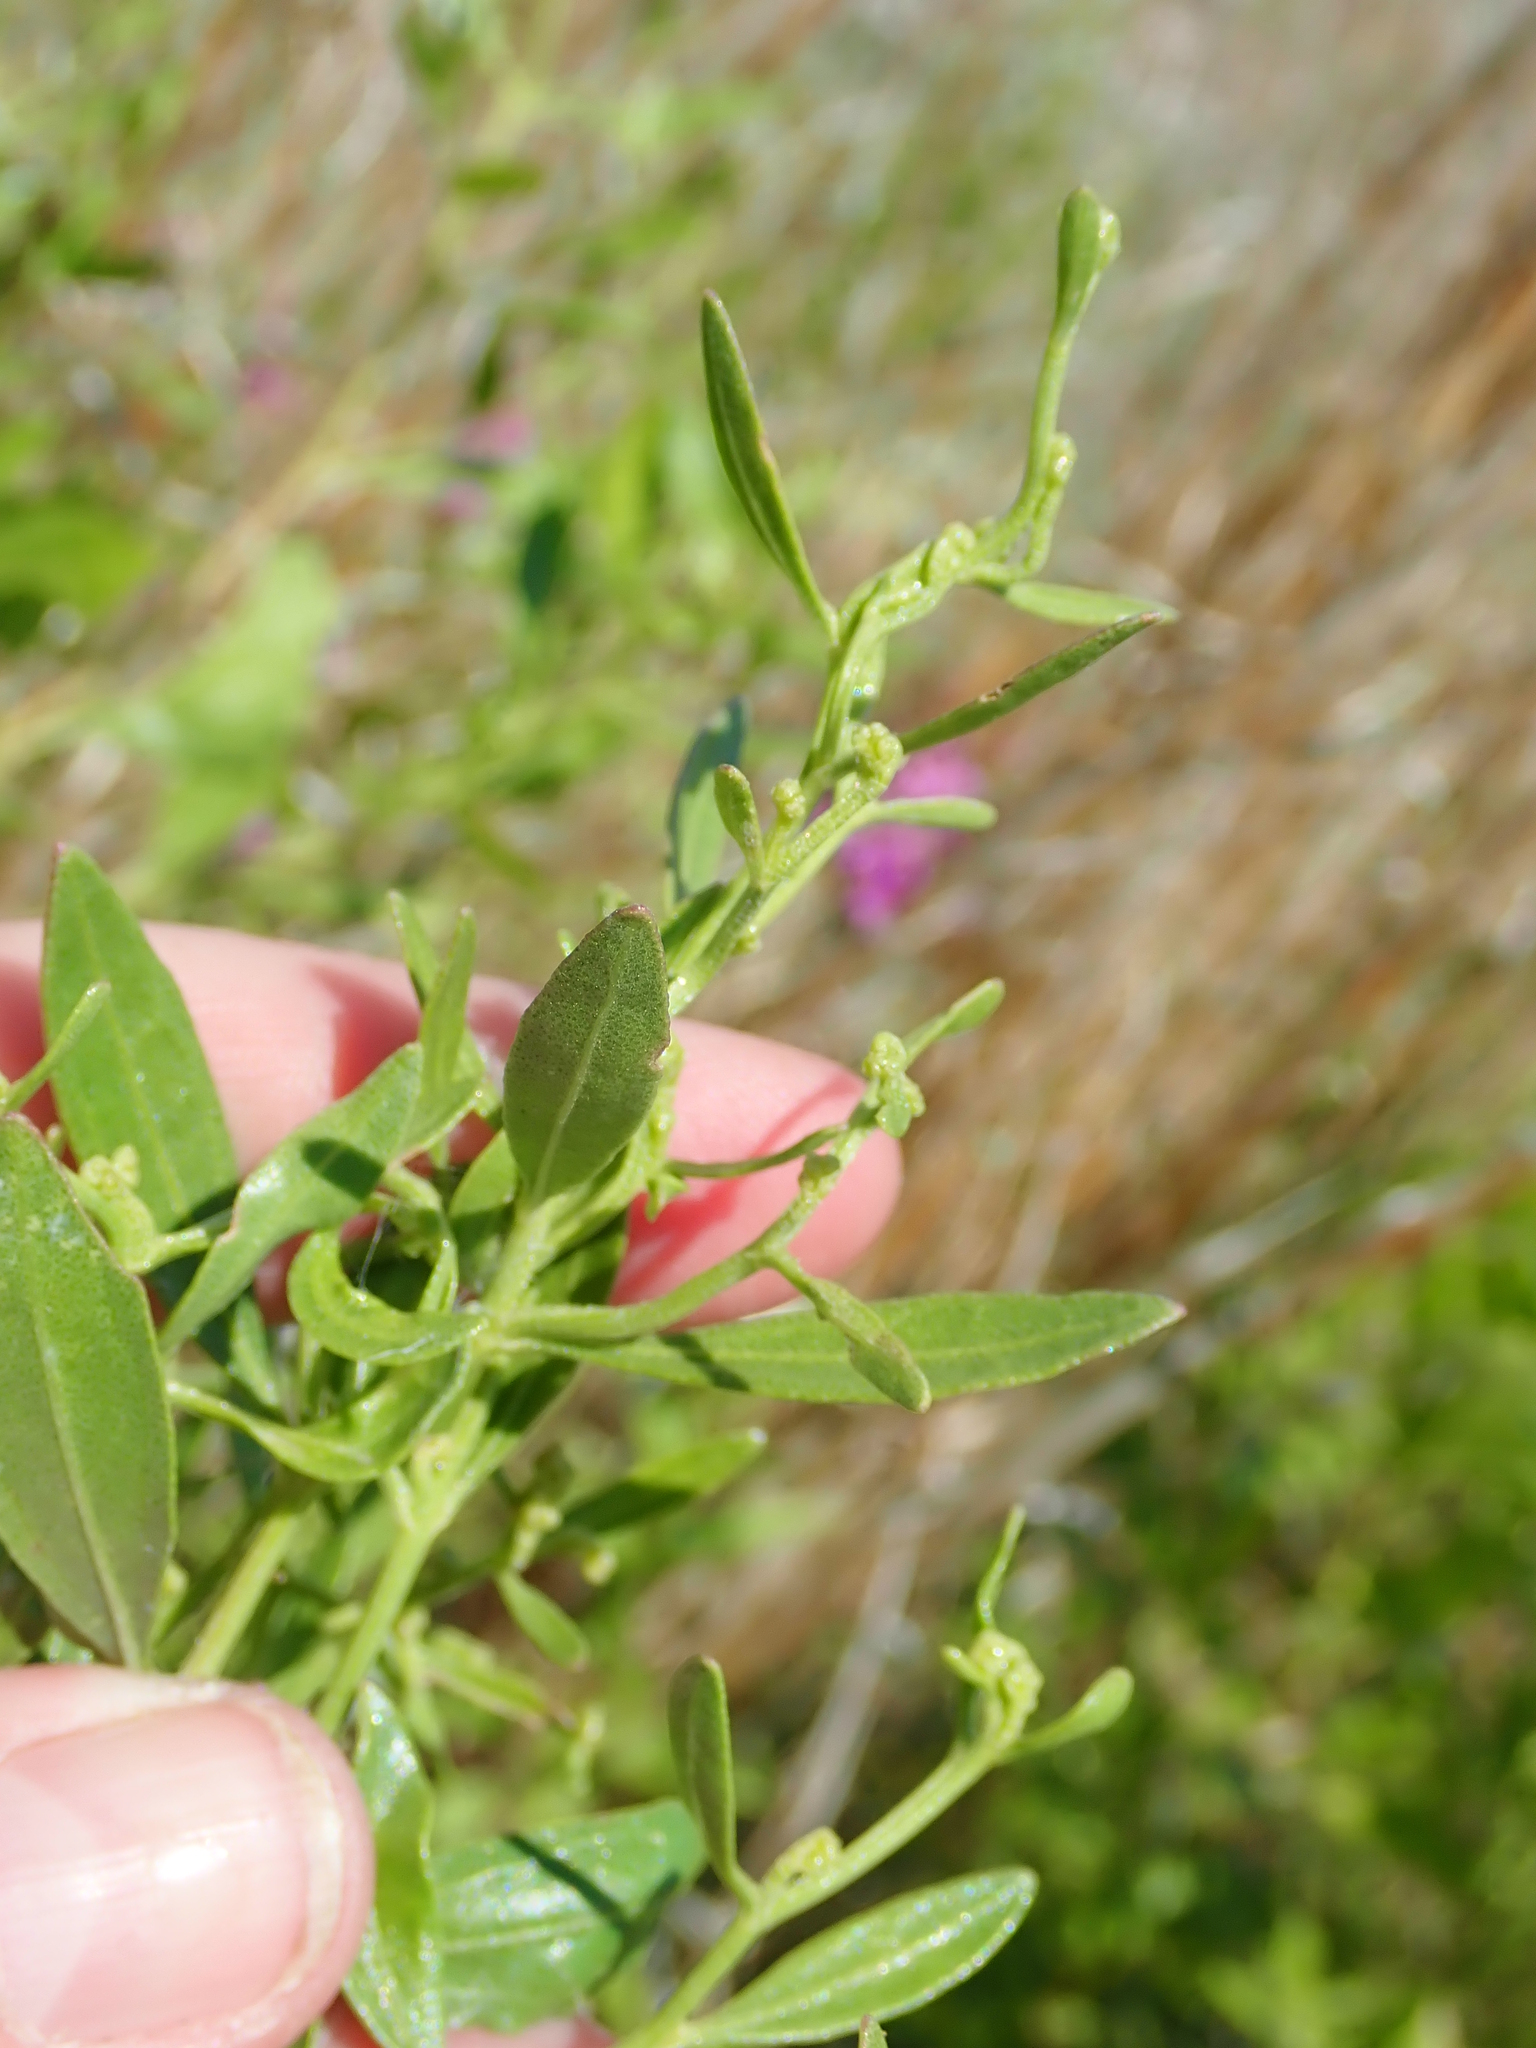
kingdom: Plantae
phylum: Tracheophyta
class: Magnoliopsida
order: Asterales
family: Asteraceae
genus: Baccharis
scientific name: Baccharis halimifolia
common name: Eastern baccharis
